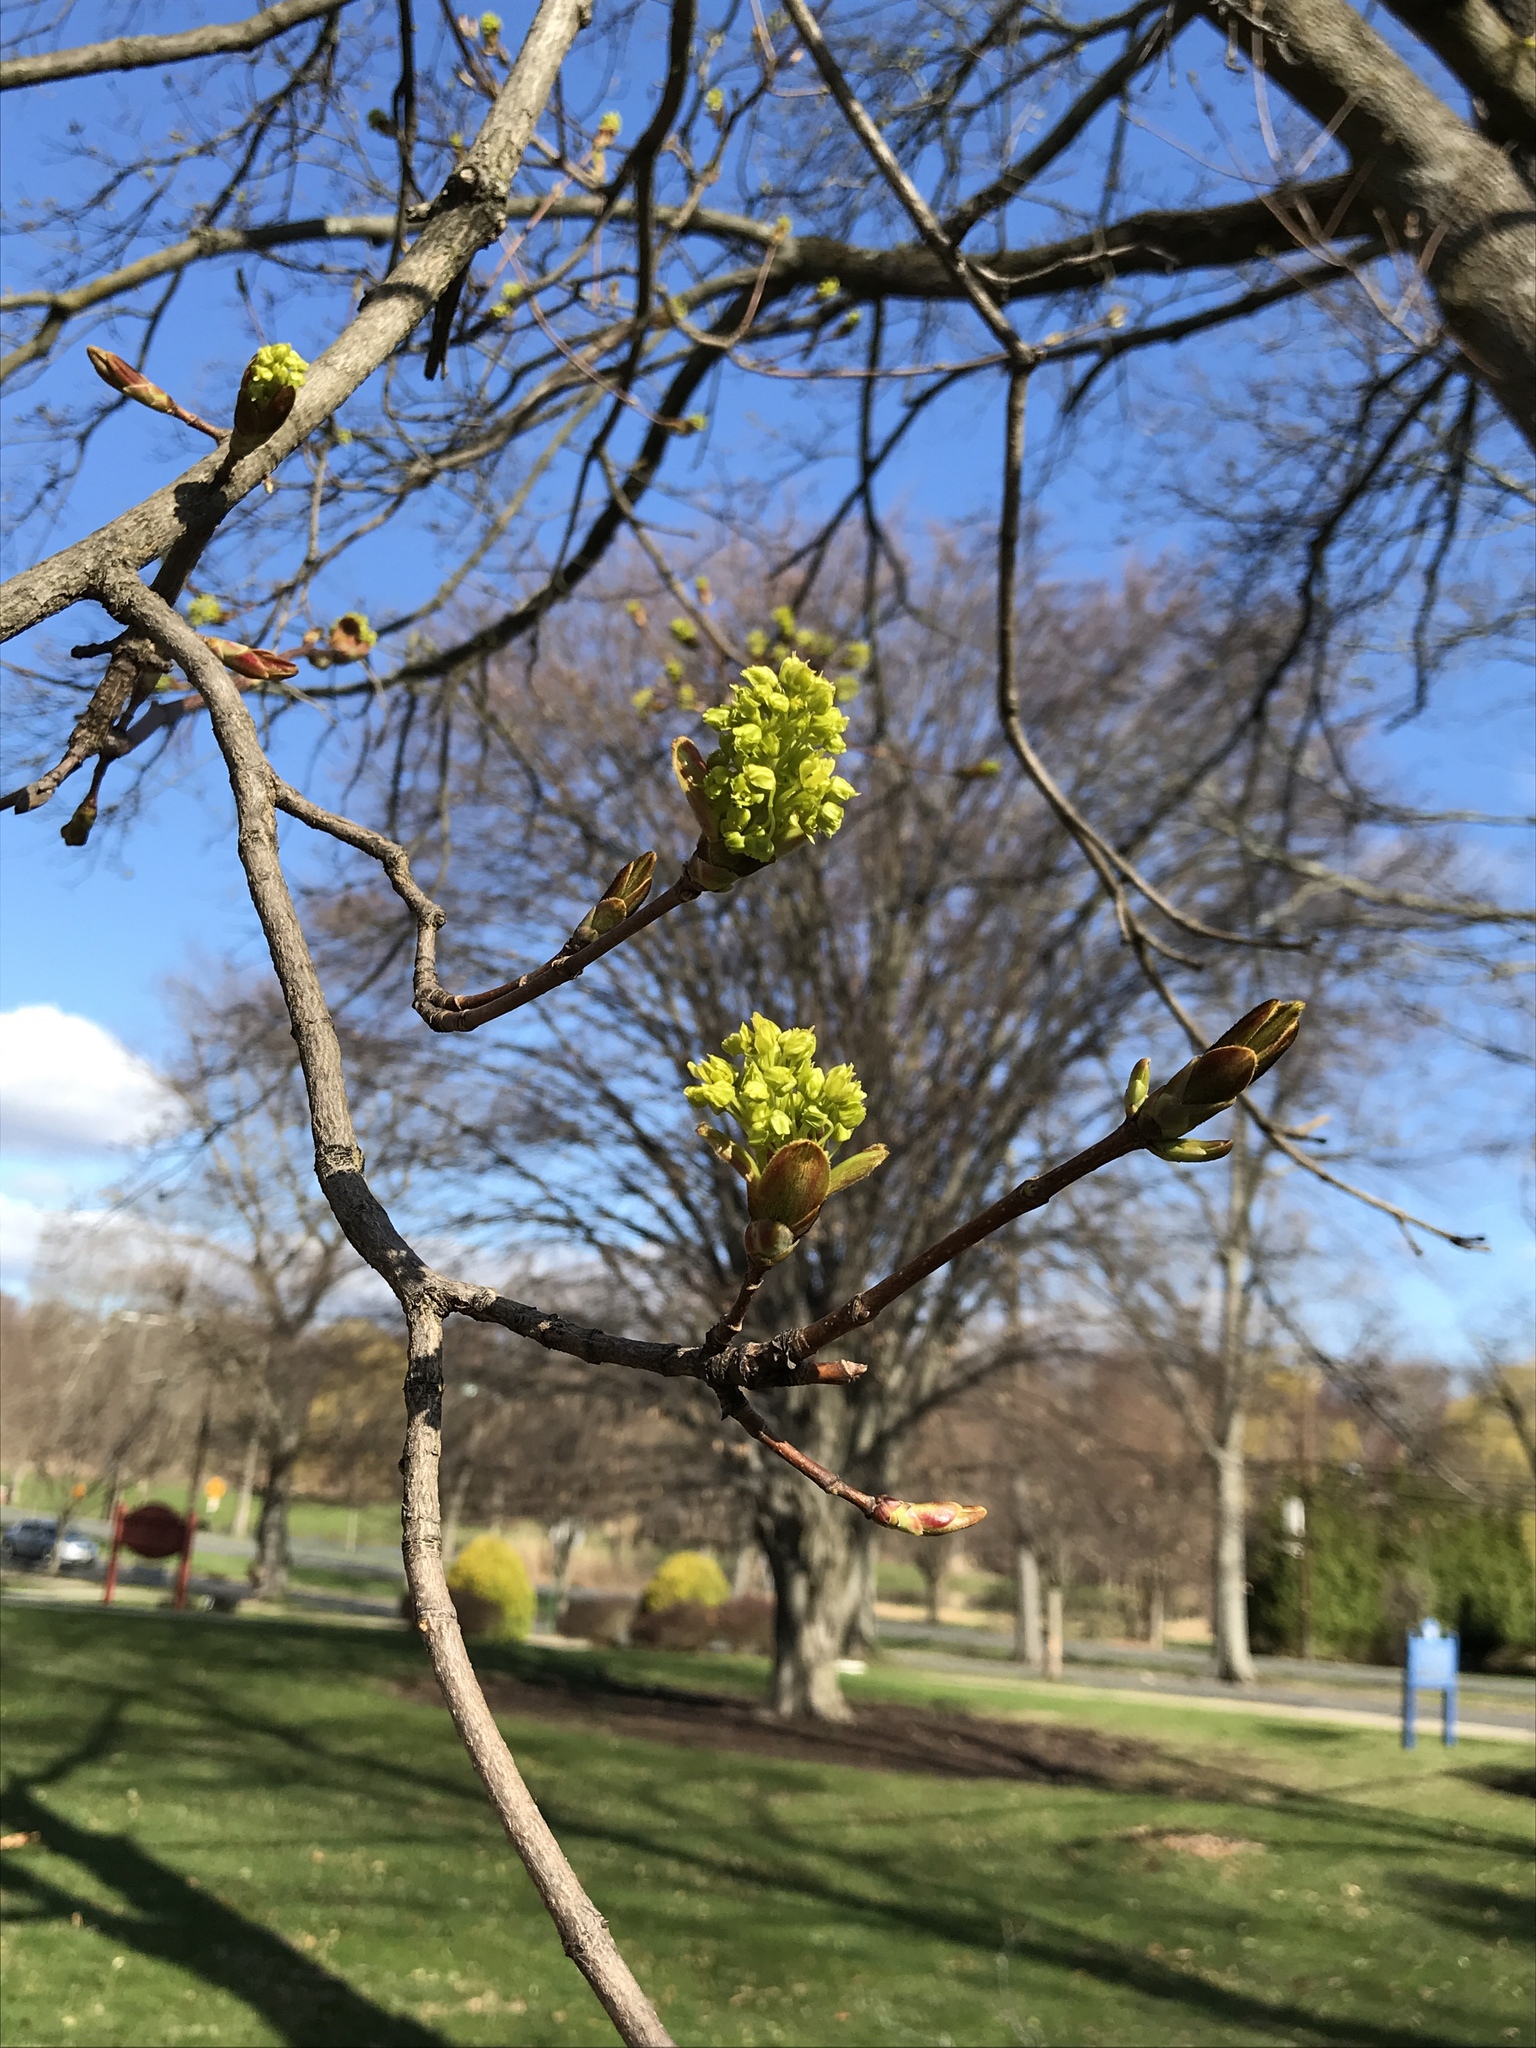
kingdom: Plantae
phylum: Tracheophyta
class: Magnoliopsida
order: Sapindales
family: Sapindaceae
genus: Acer
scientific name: Acer platanoides
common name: Norway maple
